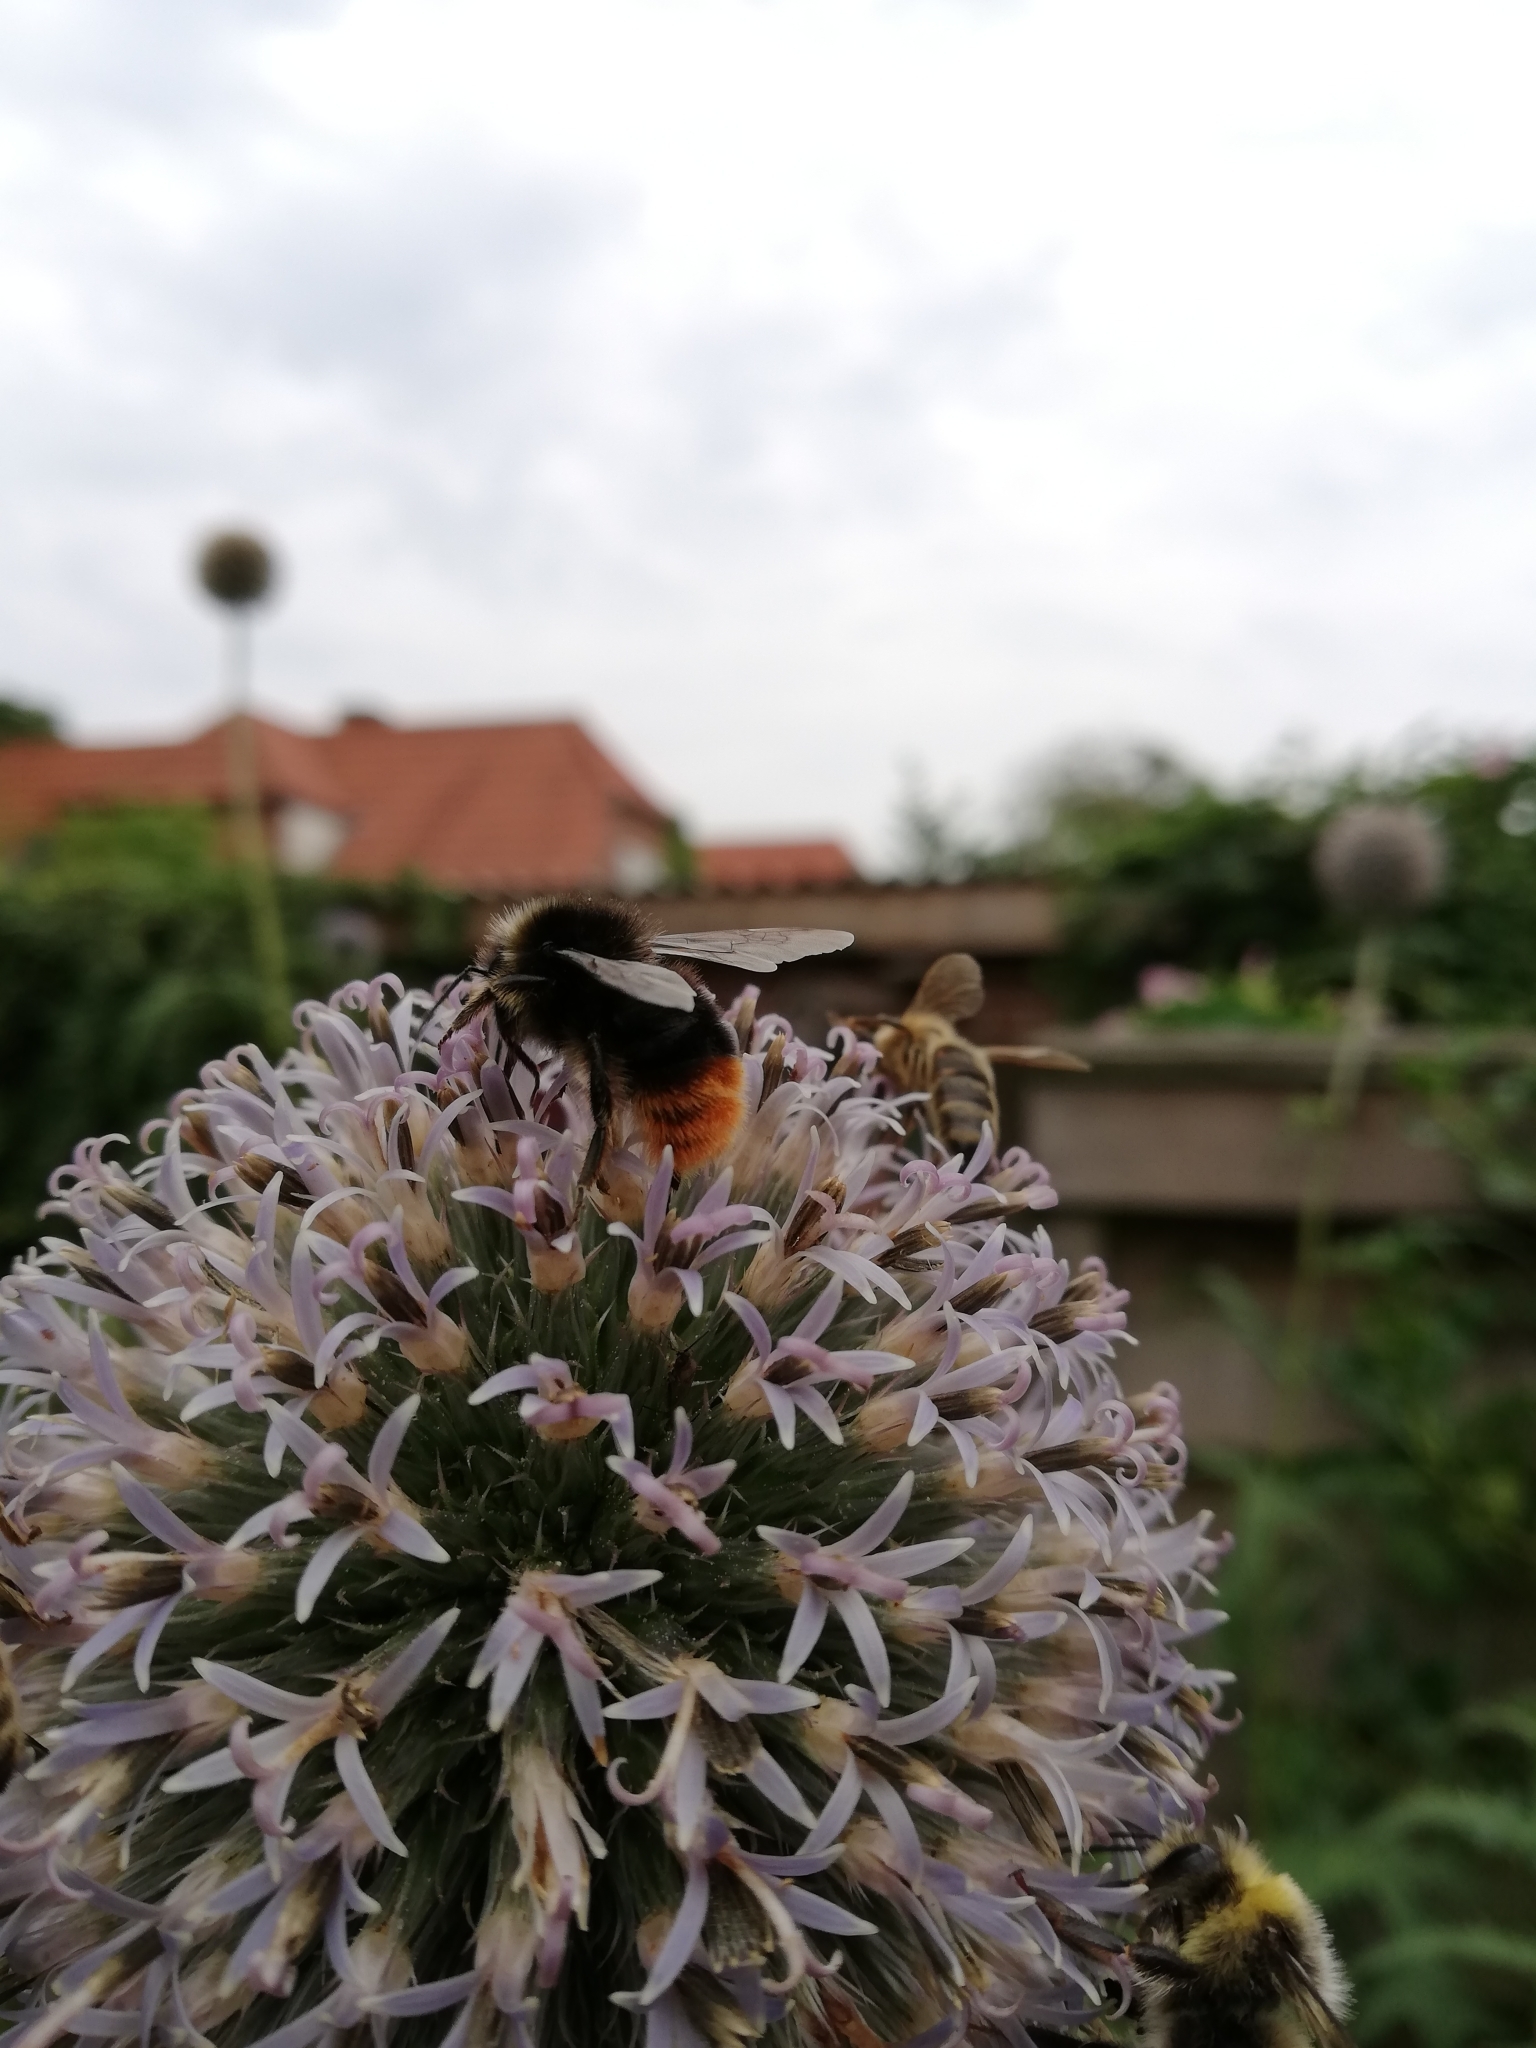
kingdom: Animalia
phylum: Arthropoda
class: Insecta
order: Hymenoptera
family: Apidae
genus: Bombus
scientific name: Bombus lapidarius
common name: Large red-tailed humble-bee
